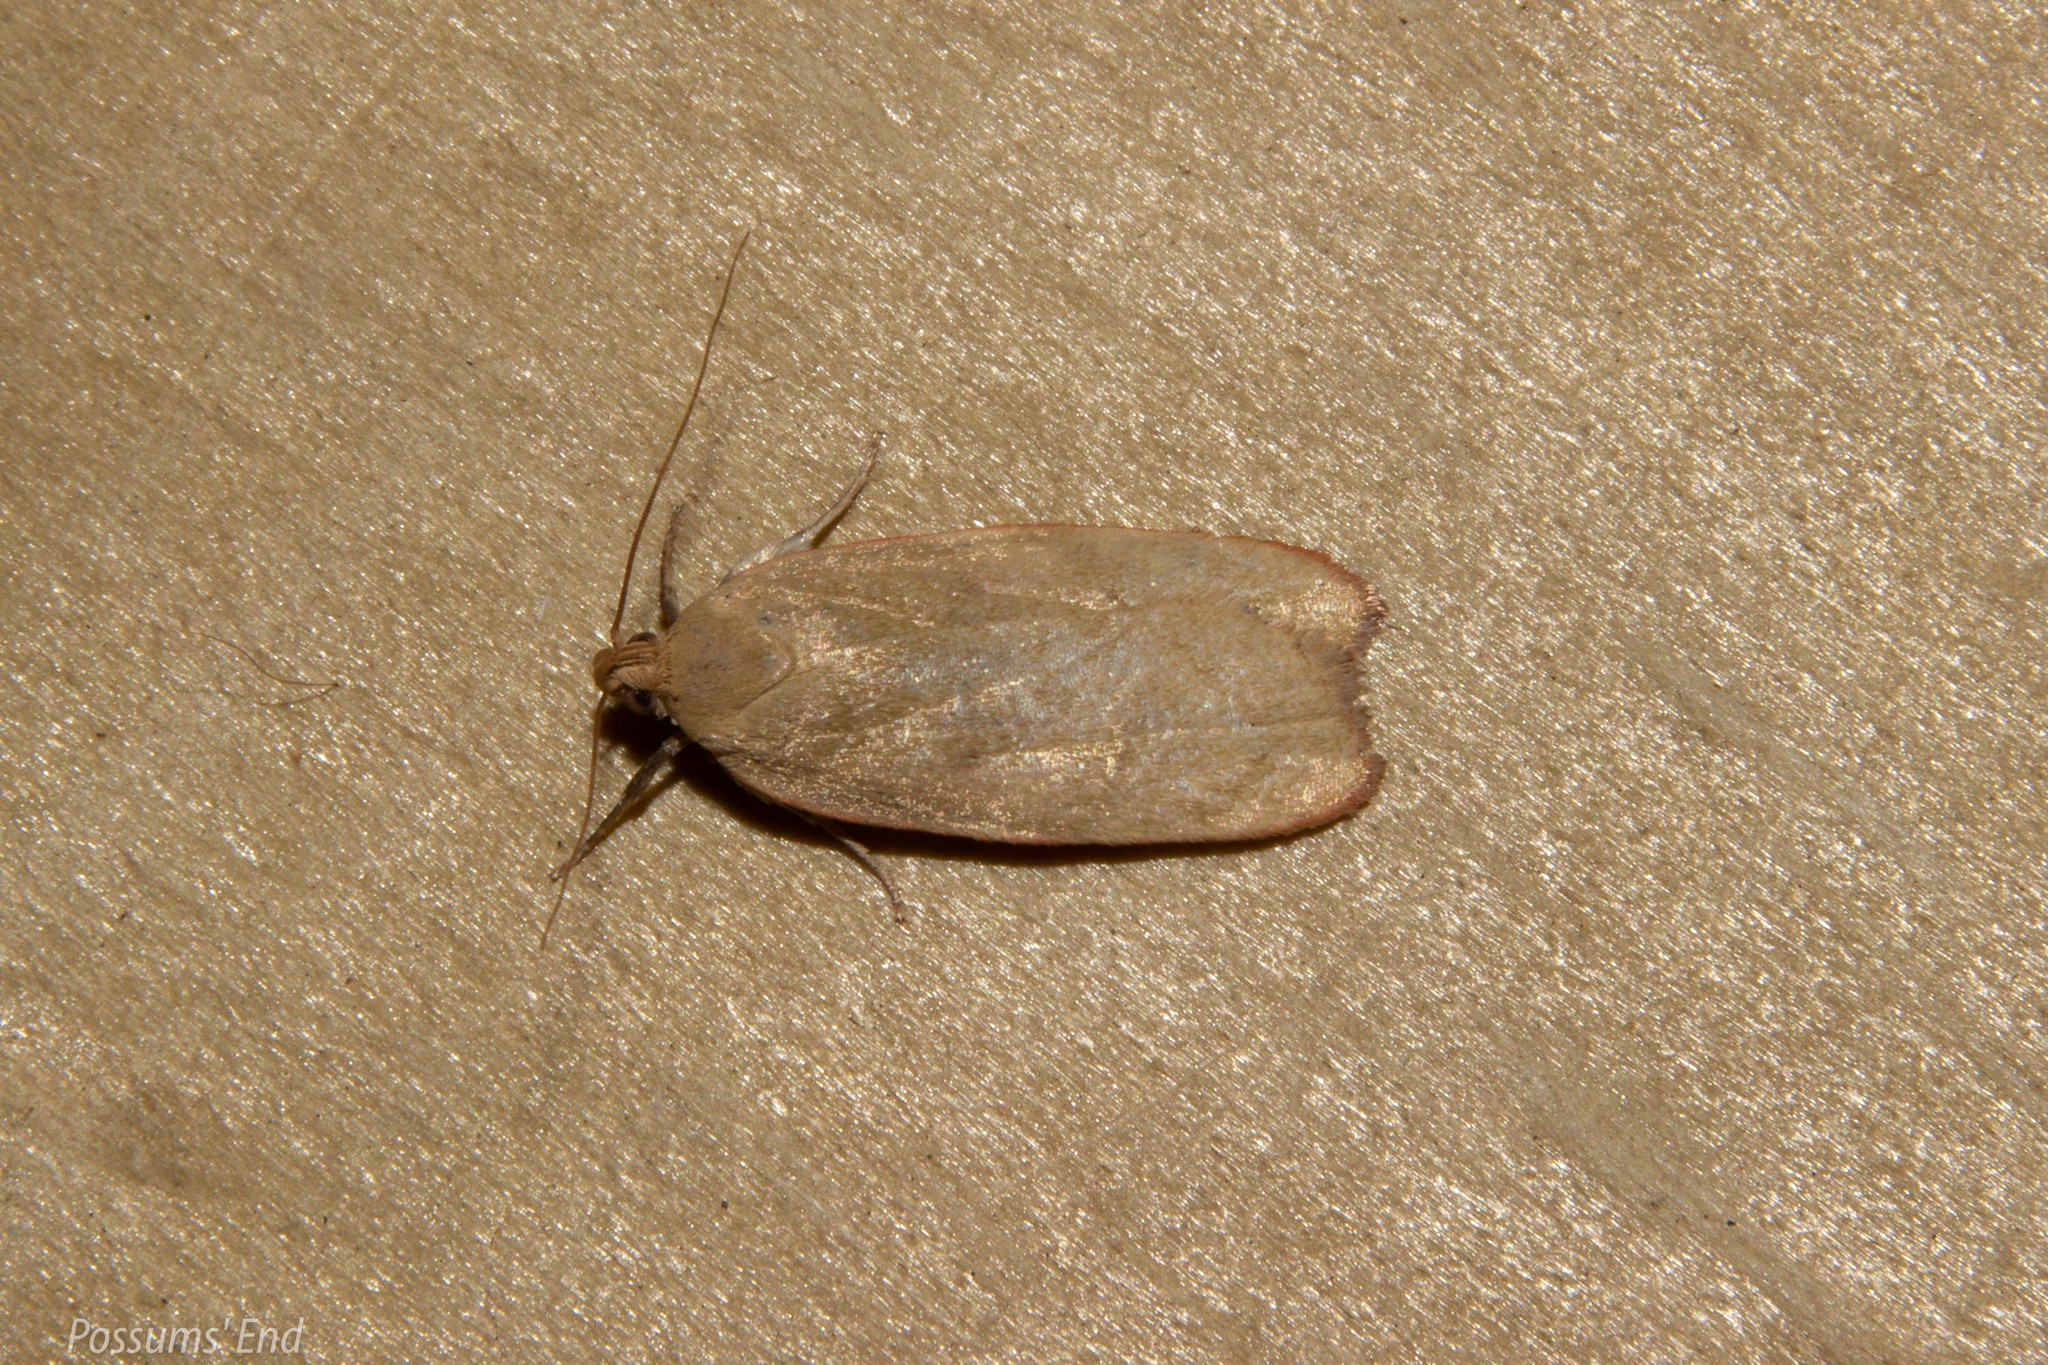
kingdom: Animalia
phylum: Arthropoda
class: Insecta
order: Lepidoptera
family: Depressariidae
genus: Phaeosaces
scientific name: Phaeosaces coarctatella
